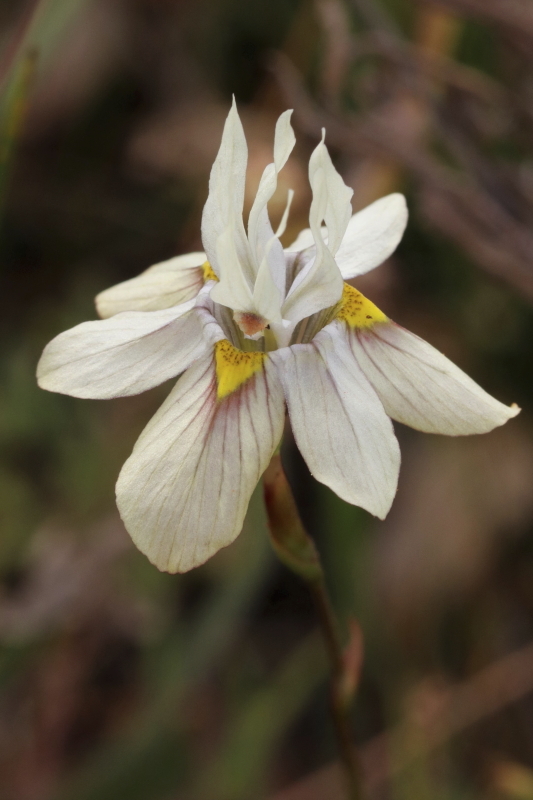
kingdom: Plantae
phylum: Tracheophyta
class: Liliopsida
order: Asparagales
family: Iridaceae
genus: Moraea
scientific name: Moraea gawleri
